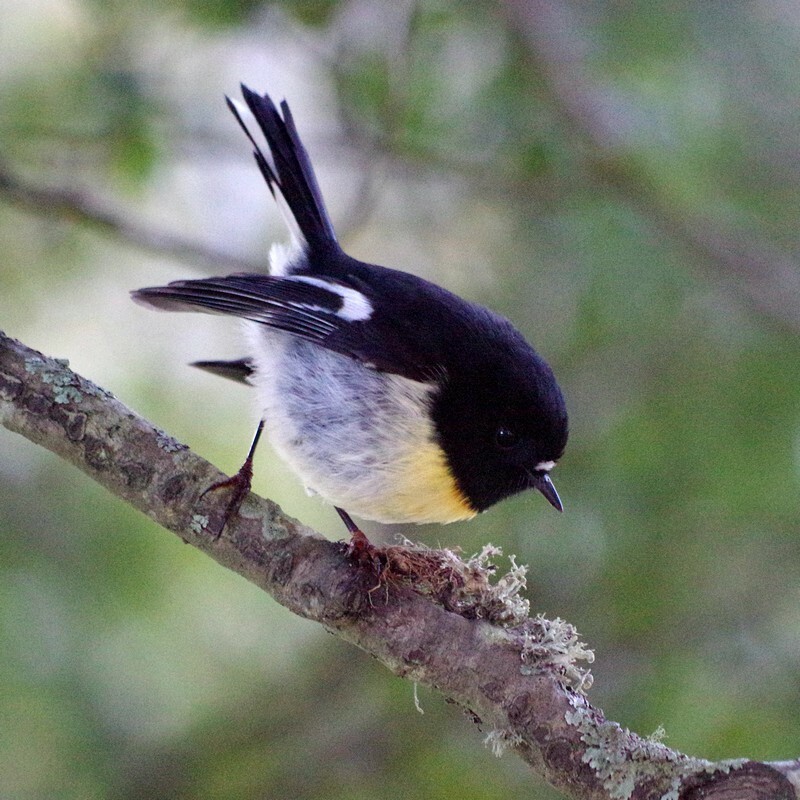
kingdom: Animalia
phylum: Chordata
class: Aves
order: Passeriformes
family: Petroicidae
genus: Petroica
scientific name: Petroica macrocephala
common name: Tomtit
